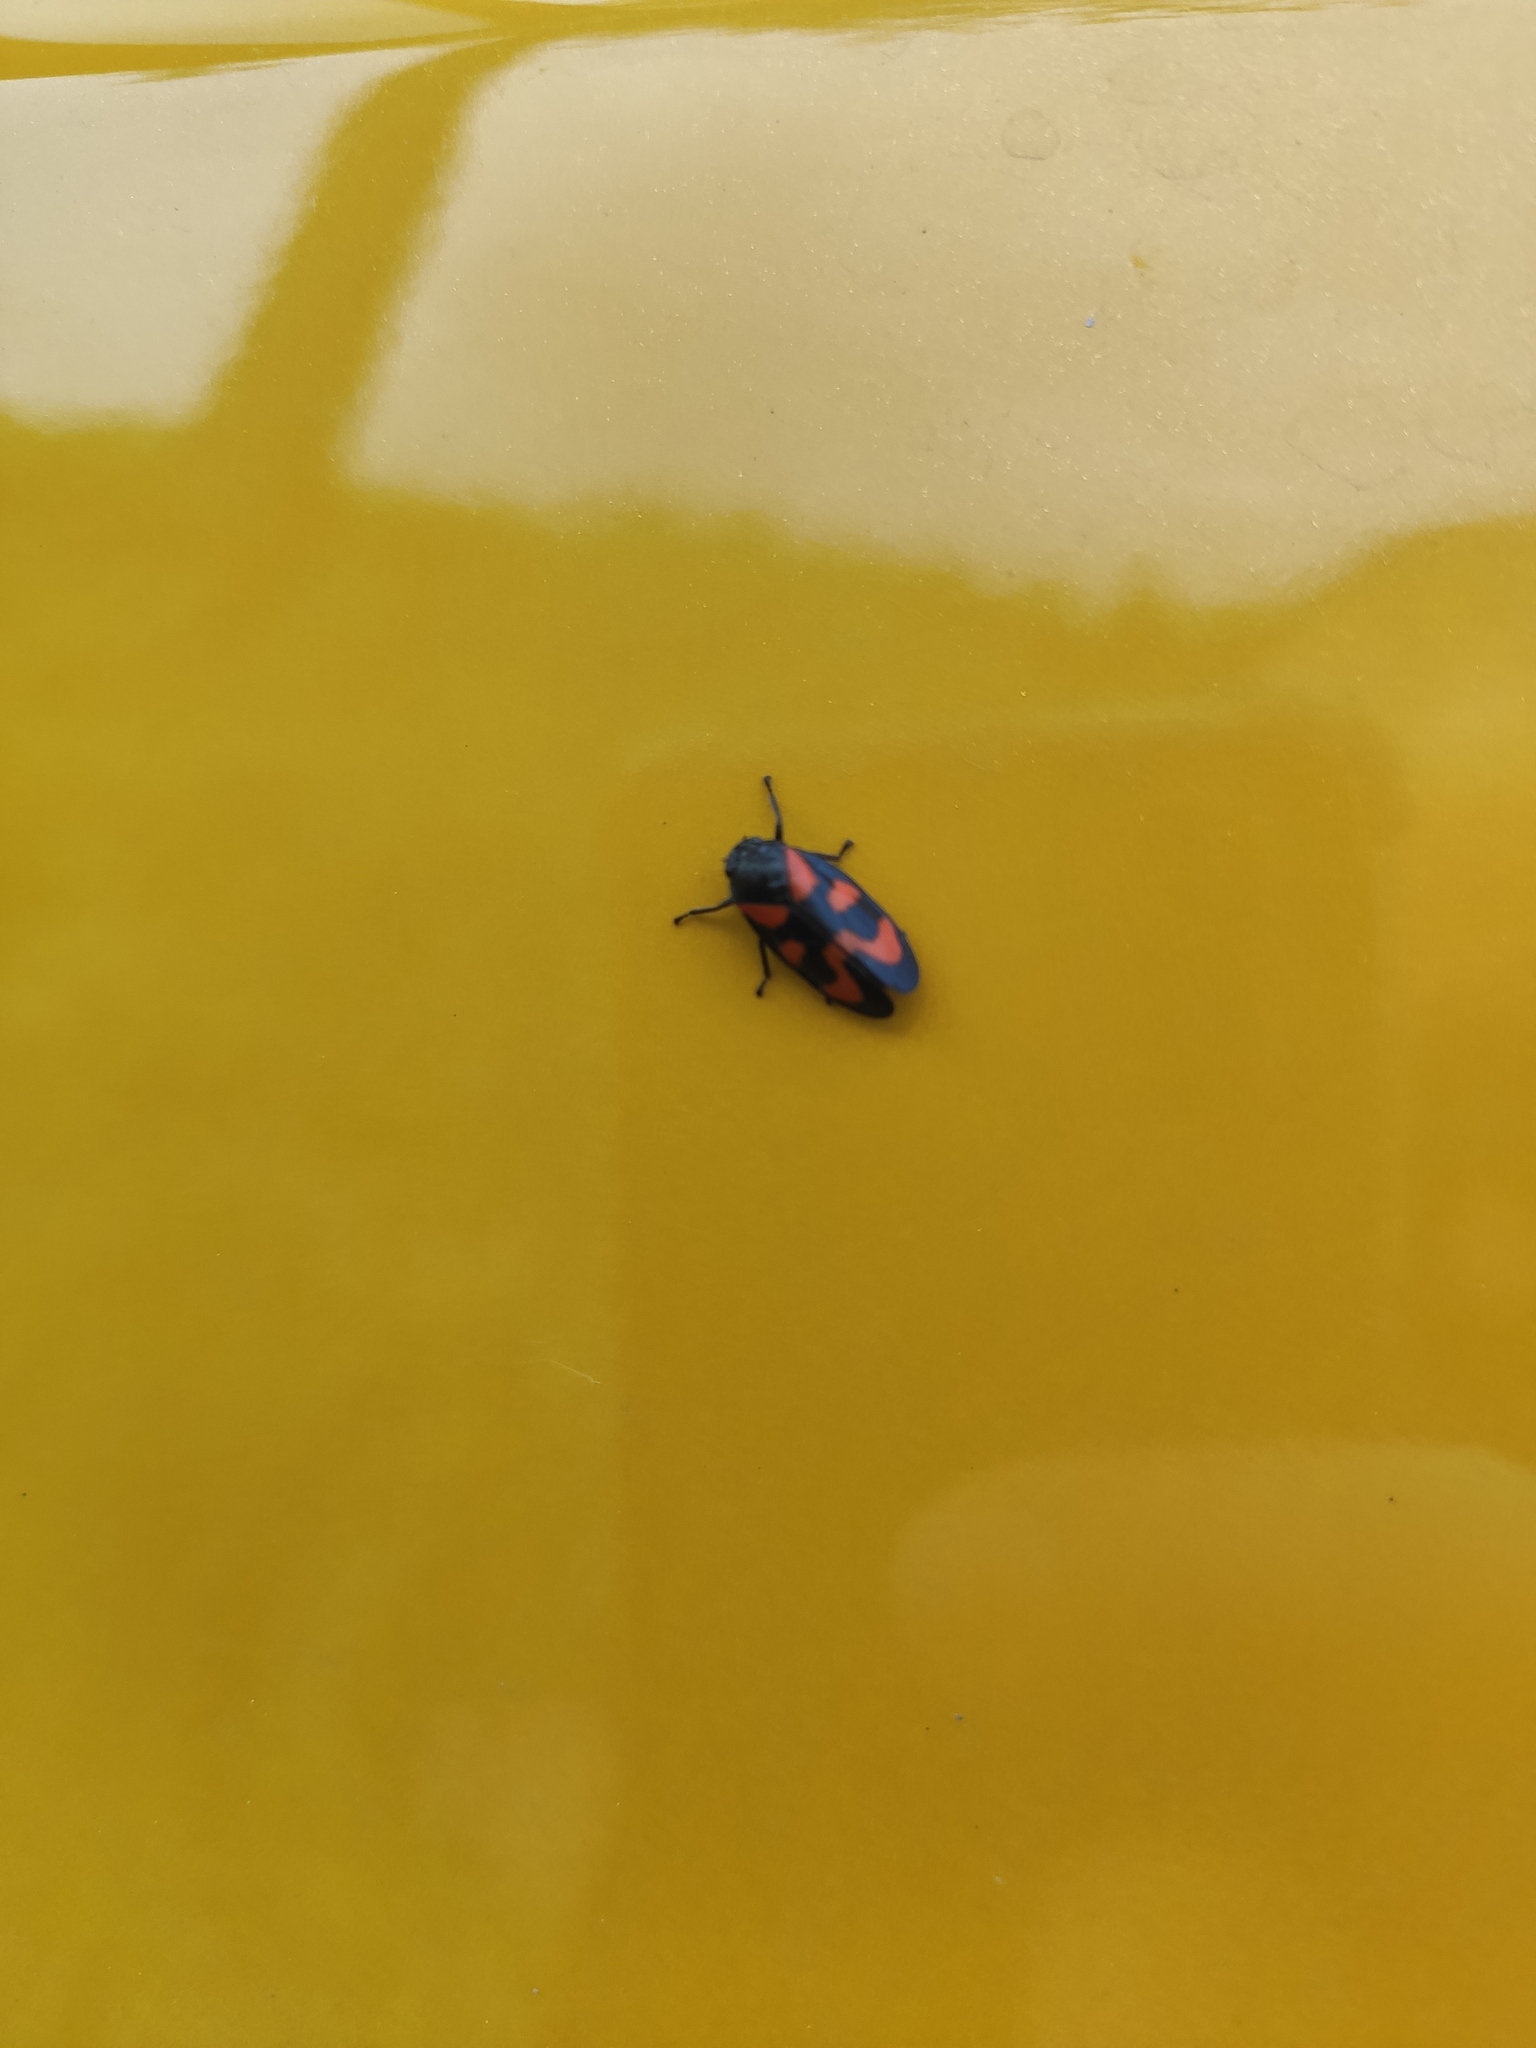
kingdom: Animalia
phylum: Arthropoda
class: Insecta
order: Hemiptera
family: Cercopidae
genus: Cercopis
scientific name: Cercopis vulnerata
